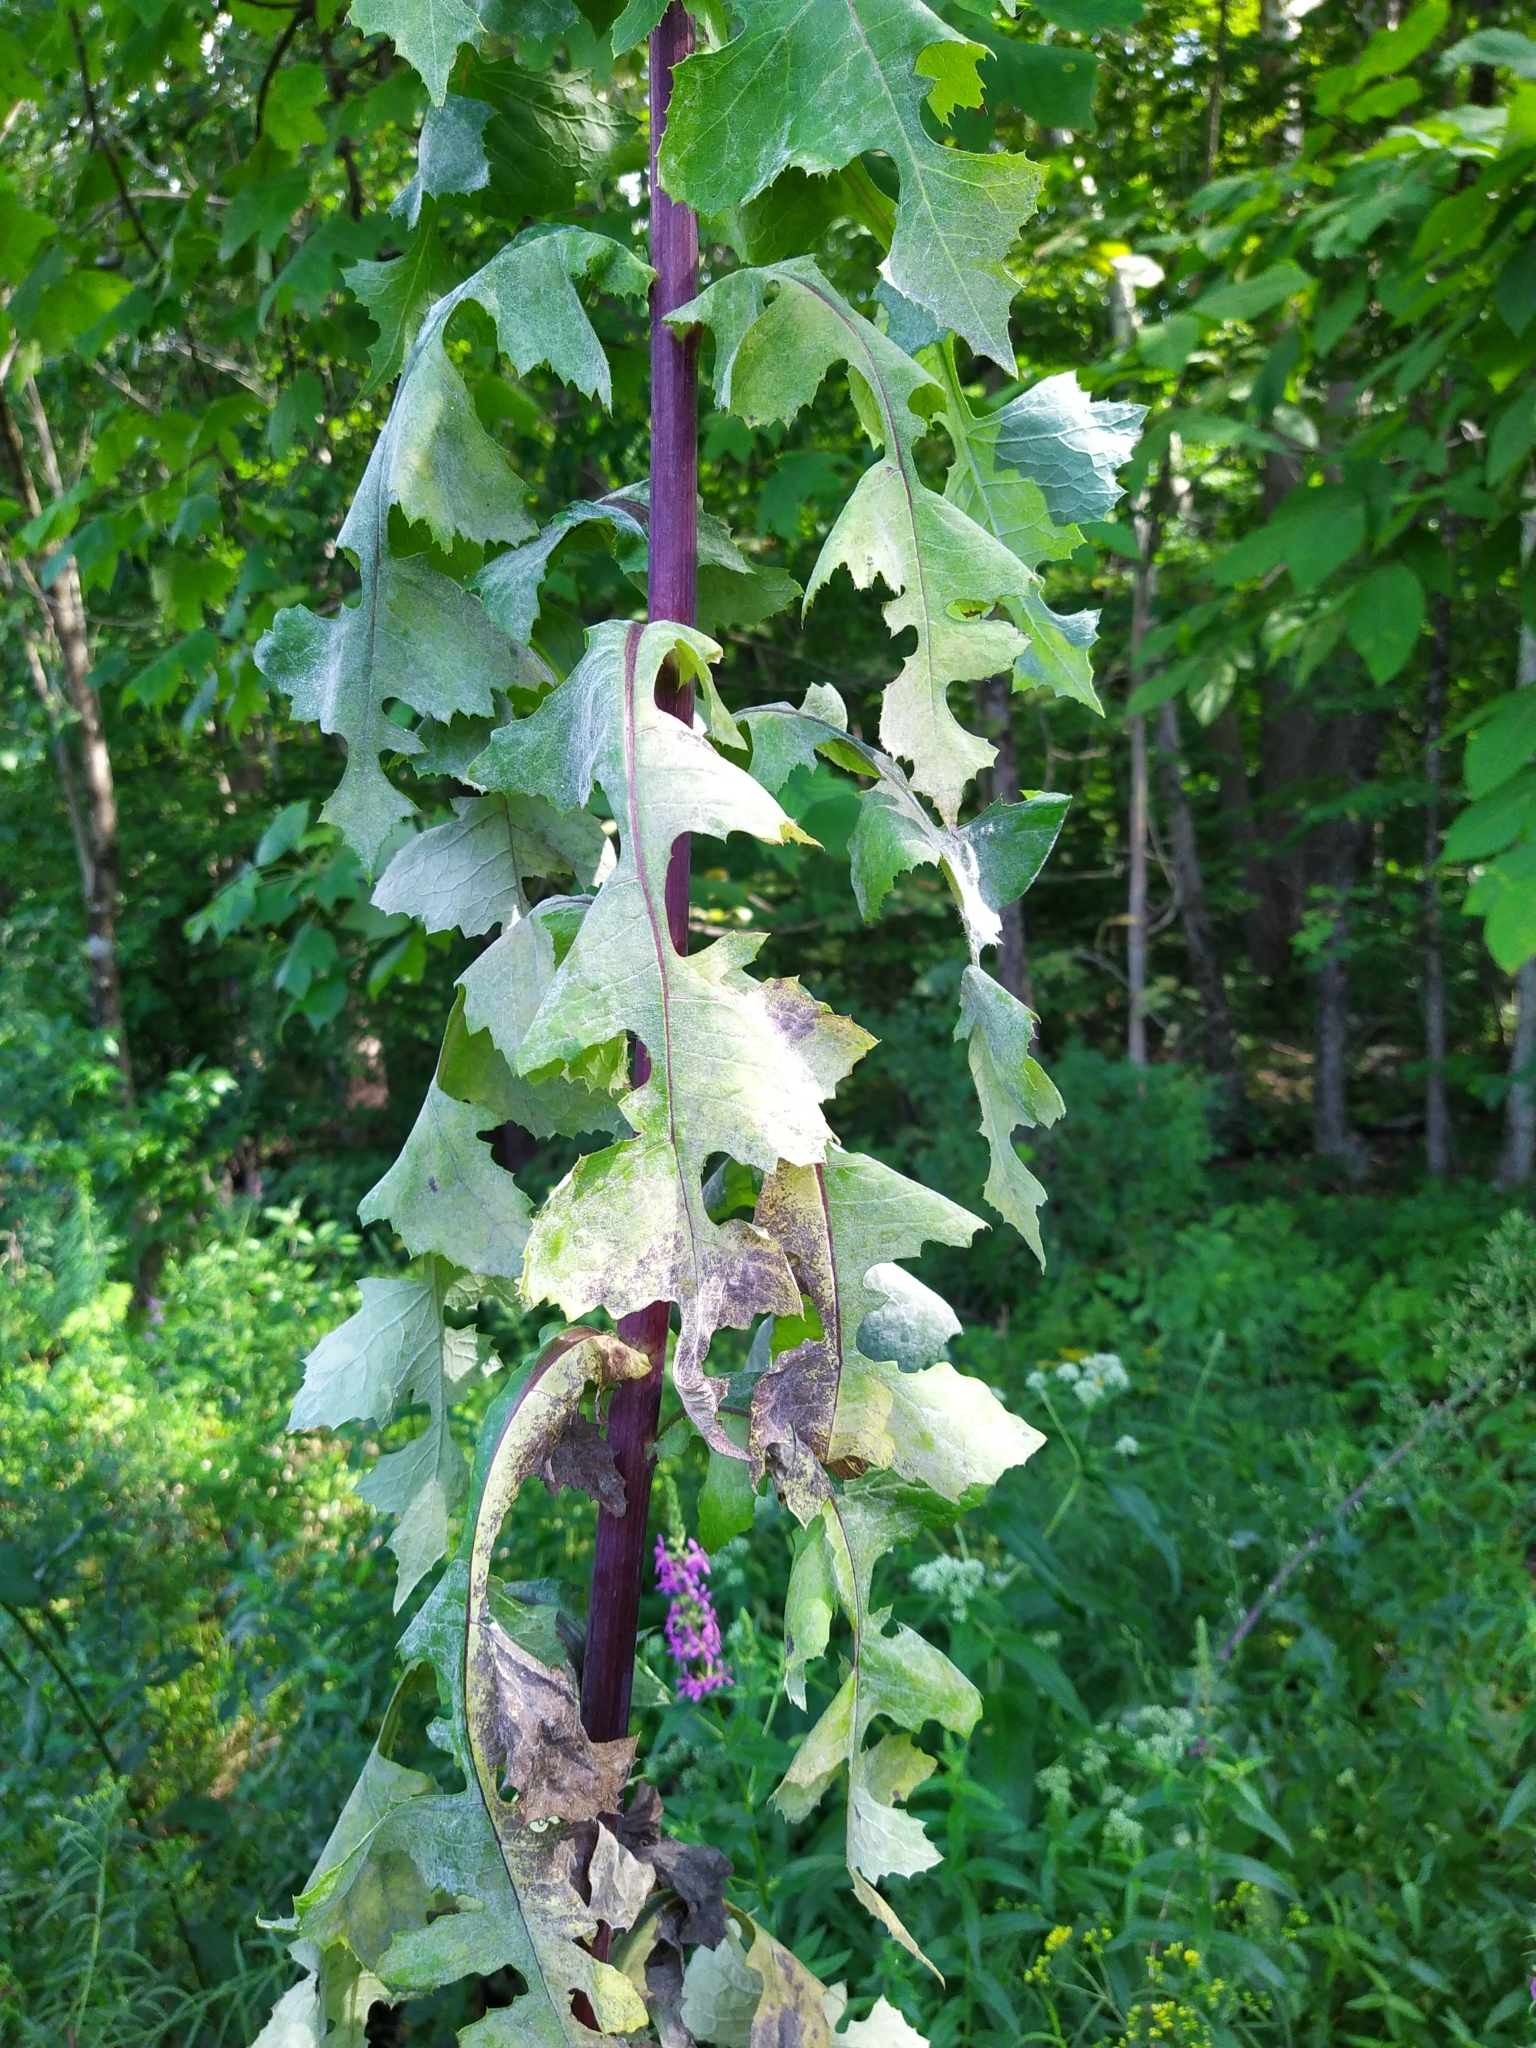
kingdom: Plantae
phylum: Tracheophyta
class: Magnoliopsida
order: Asterales
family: Asteraceae
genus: Lactuca
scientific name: Lactuca biennis
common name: Blue wood lettuce
